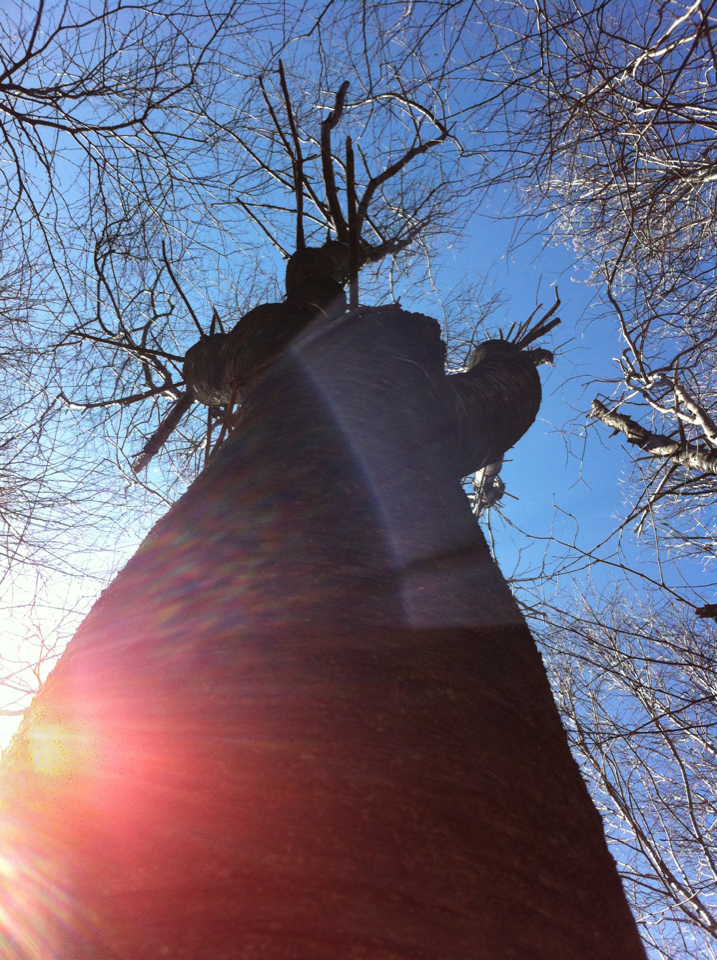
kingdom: Plantae
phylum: Tracheophyta
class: Magnoliopsida
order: Rosales
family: Rosaceae
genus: Prunus
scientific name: Prunus pensylvanica
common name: Pin cherry
